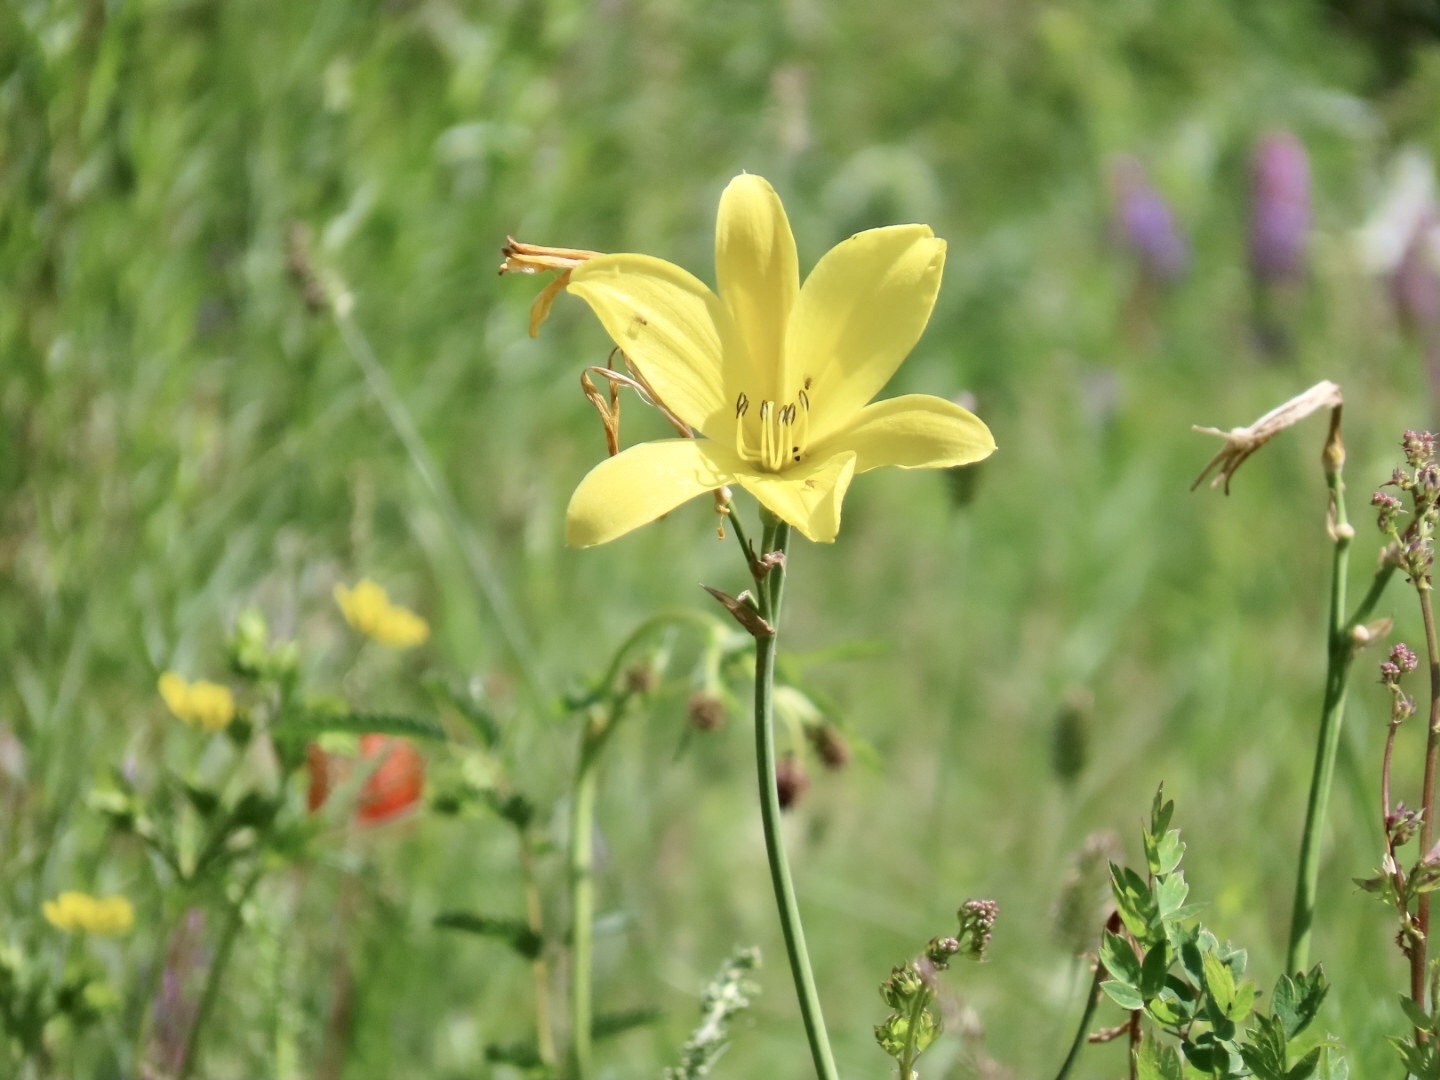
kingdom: Plantae
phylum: Tracheophyta
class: Liliopsida
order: Asparagales
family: Asphodelaceae
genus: Hemerocallis
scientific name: Hemerocallis minor
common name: Small daylily
